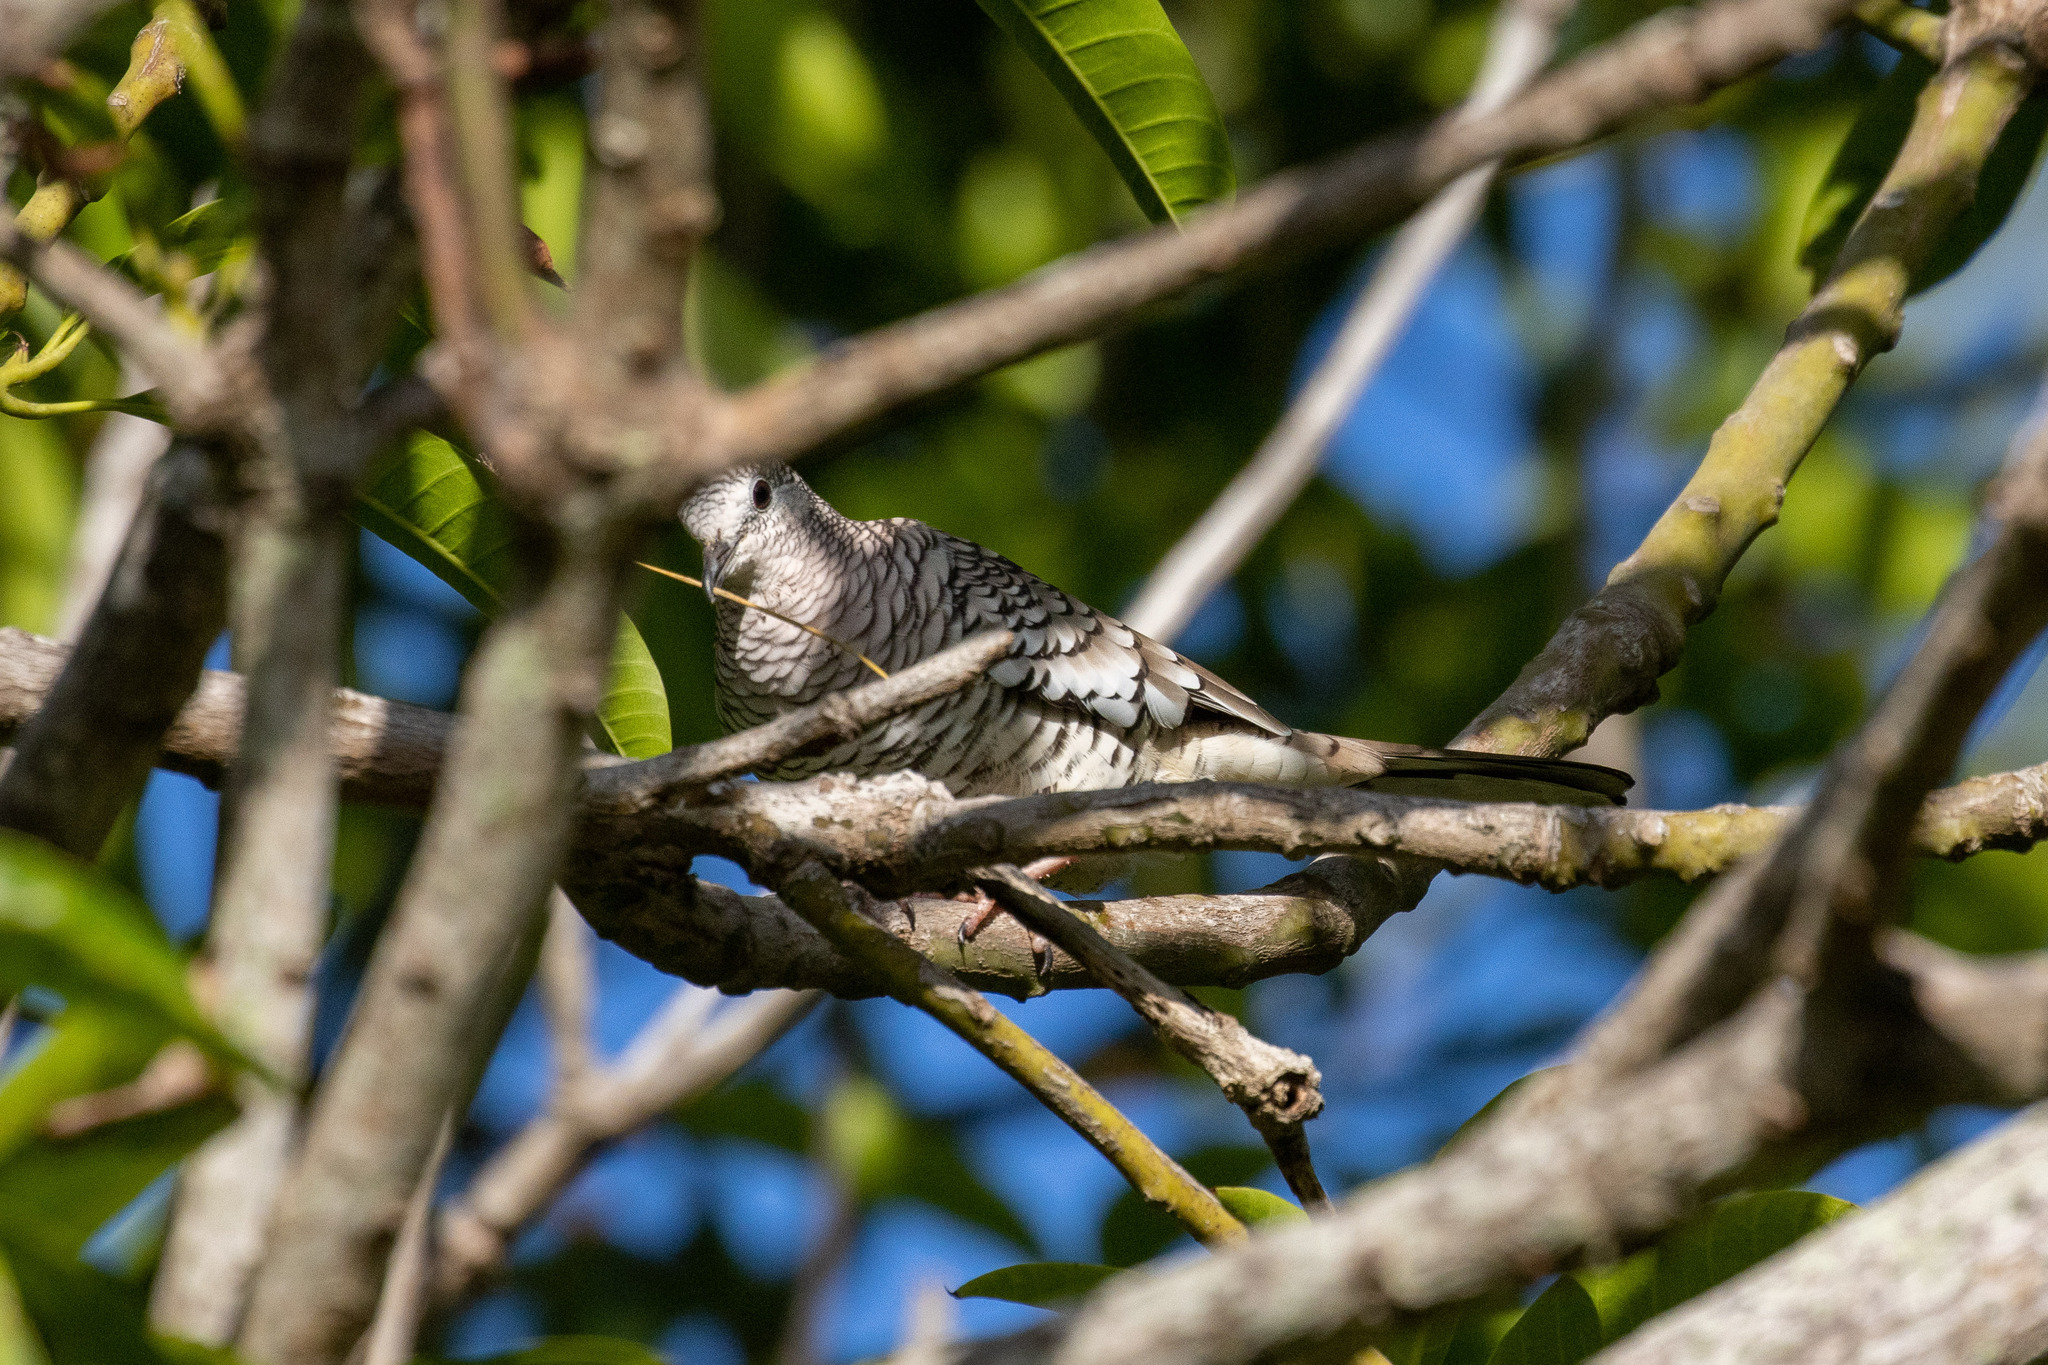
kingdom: Animalia
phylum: Chordata
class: Aves
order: Columbiformes
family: Columbidae
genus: Columbina
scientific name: Columbina squammata
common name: Scaled dove
